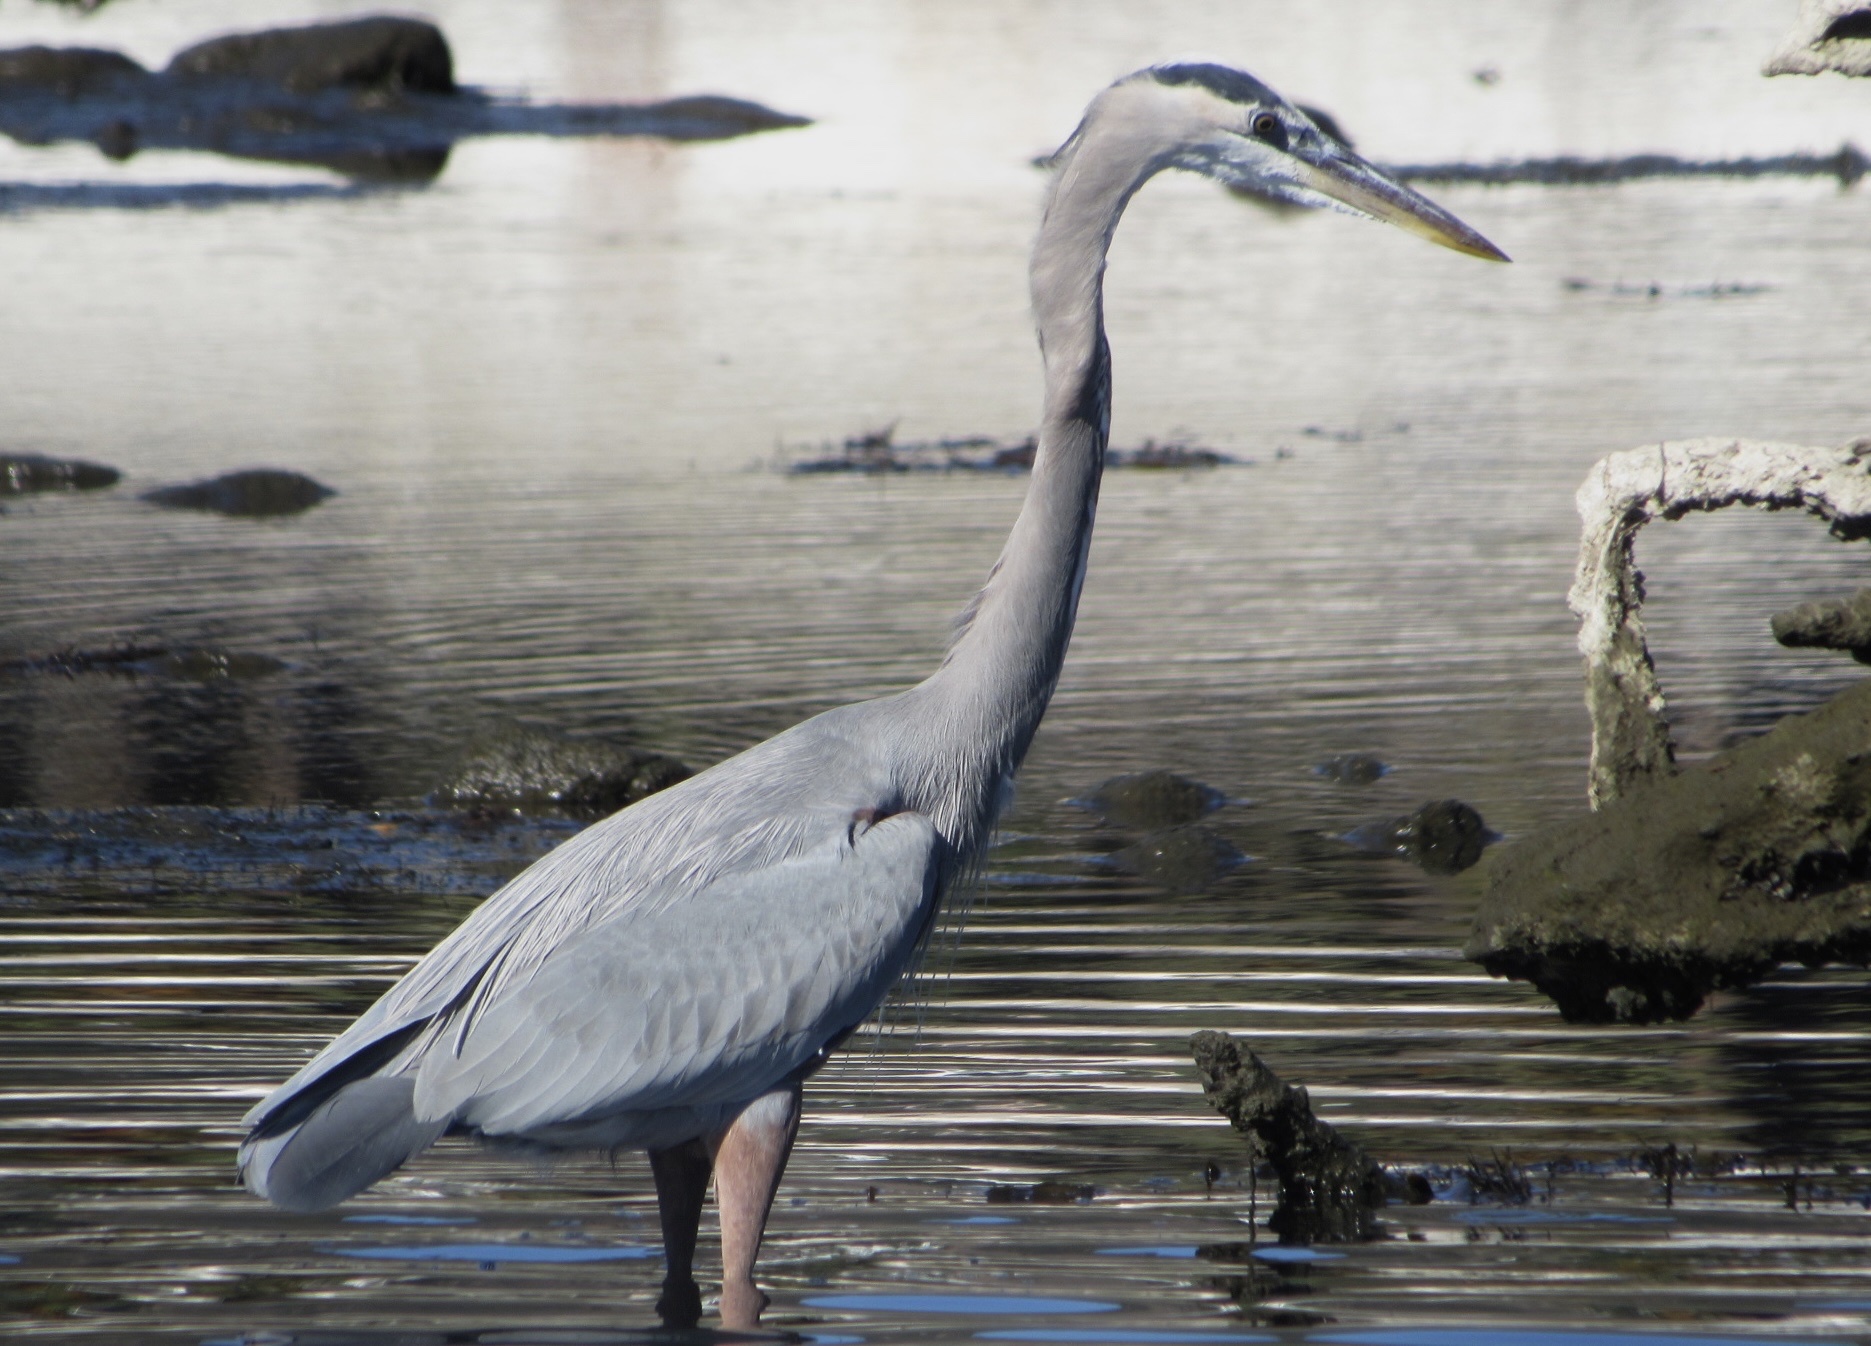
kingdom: Animalia
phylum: Chordata
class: Aves
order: Pelecaniformes
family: Ardeidae
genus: Ardea
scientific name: Ardea herodias
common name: Great blue heron
